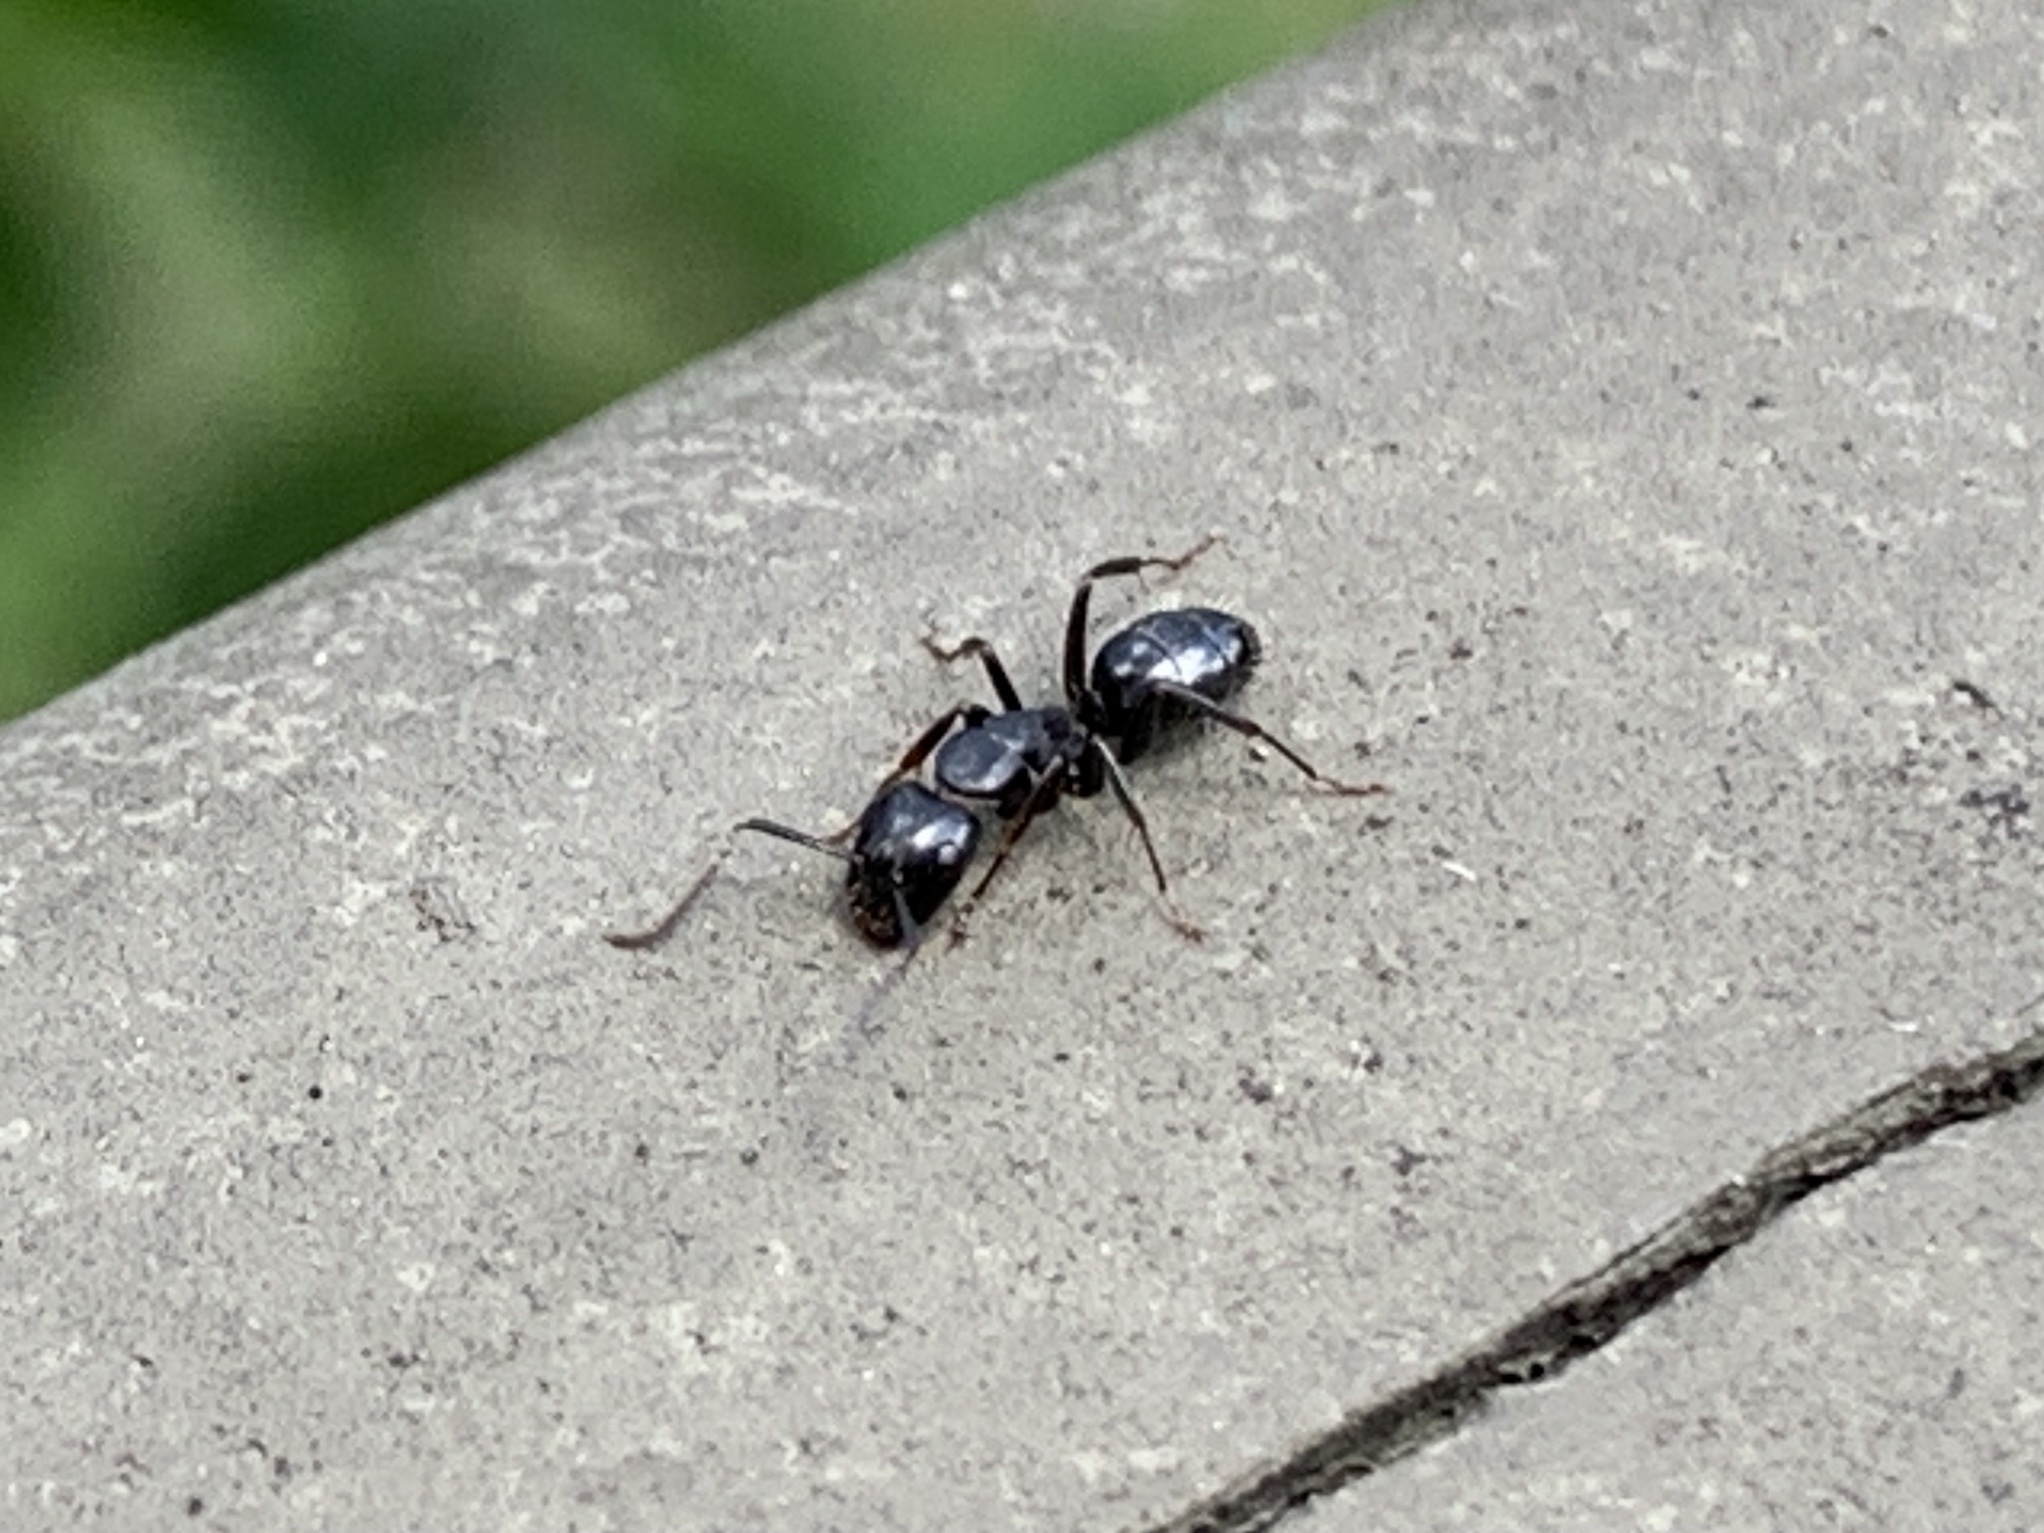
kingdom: Animalia
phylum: Arthropoda
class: Insecta
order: Hymenoptera
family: Formicidae
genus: Camponotus
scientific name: Camponotus nearcticus
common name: Smaller carpenter ant
